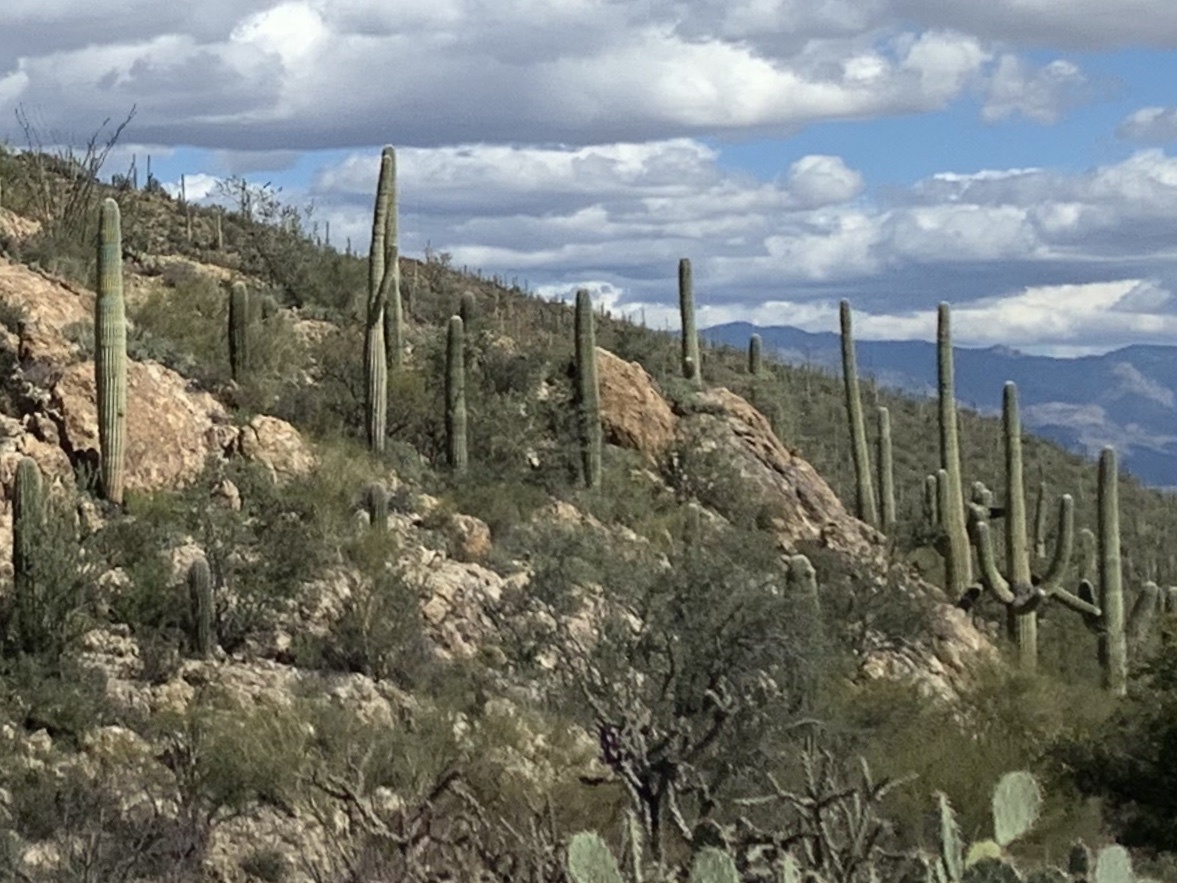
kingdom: Plantae
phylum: Tracheophyta
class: Magnoliopsida
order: Caryophyllales
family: Cactaceae
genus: Carnegiea
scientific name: Carnegiea gigantea
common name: Saguaro
